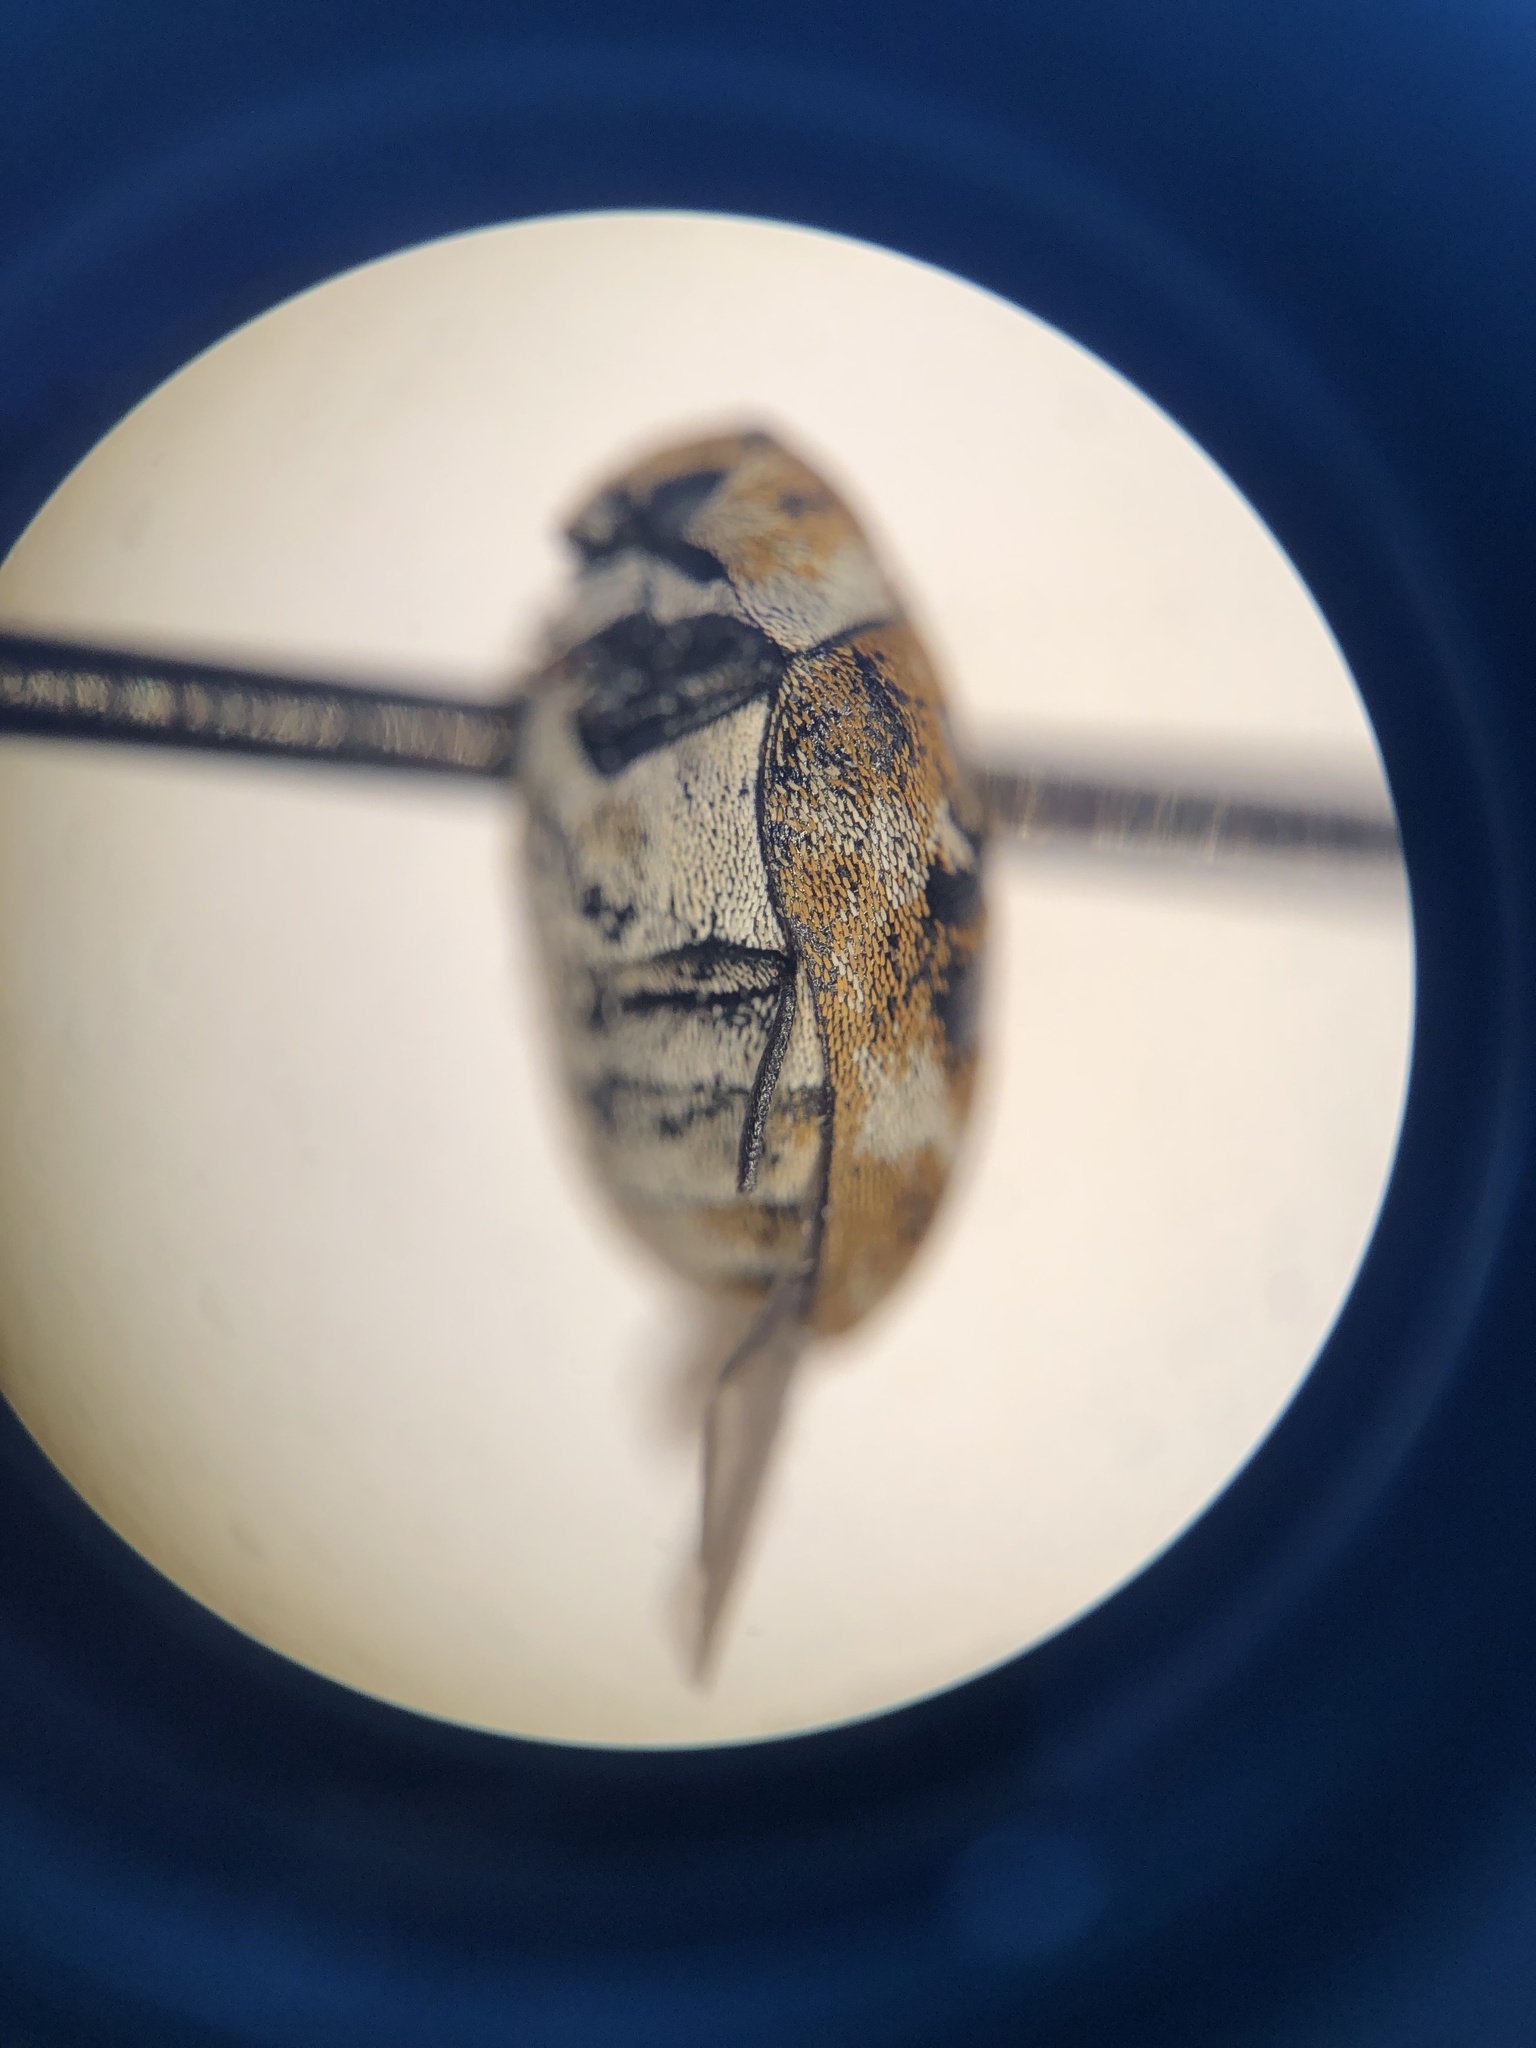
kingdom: Animalia
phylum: Arthropoda
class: Insecta
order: Coleoptera
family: Dermestidae
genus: Anthrenus
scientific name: Anthrenus verbasci
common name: Varied carpet beetle
